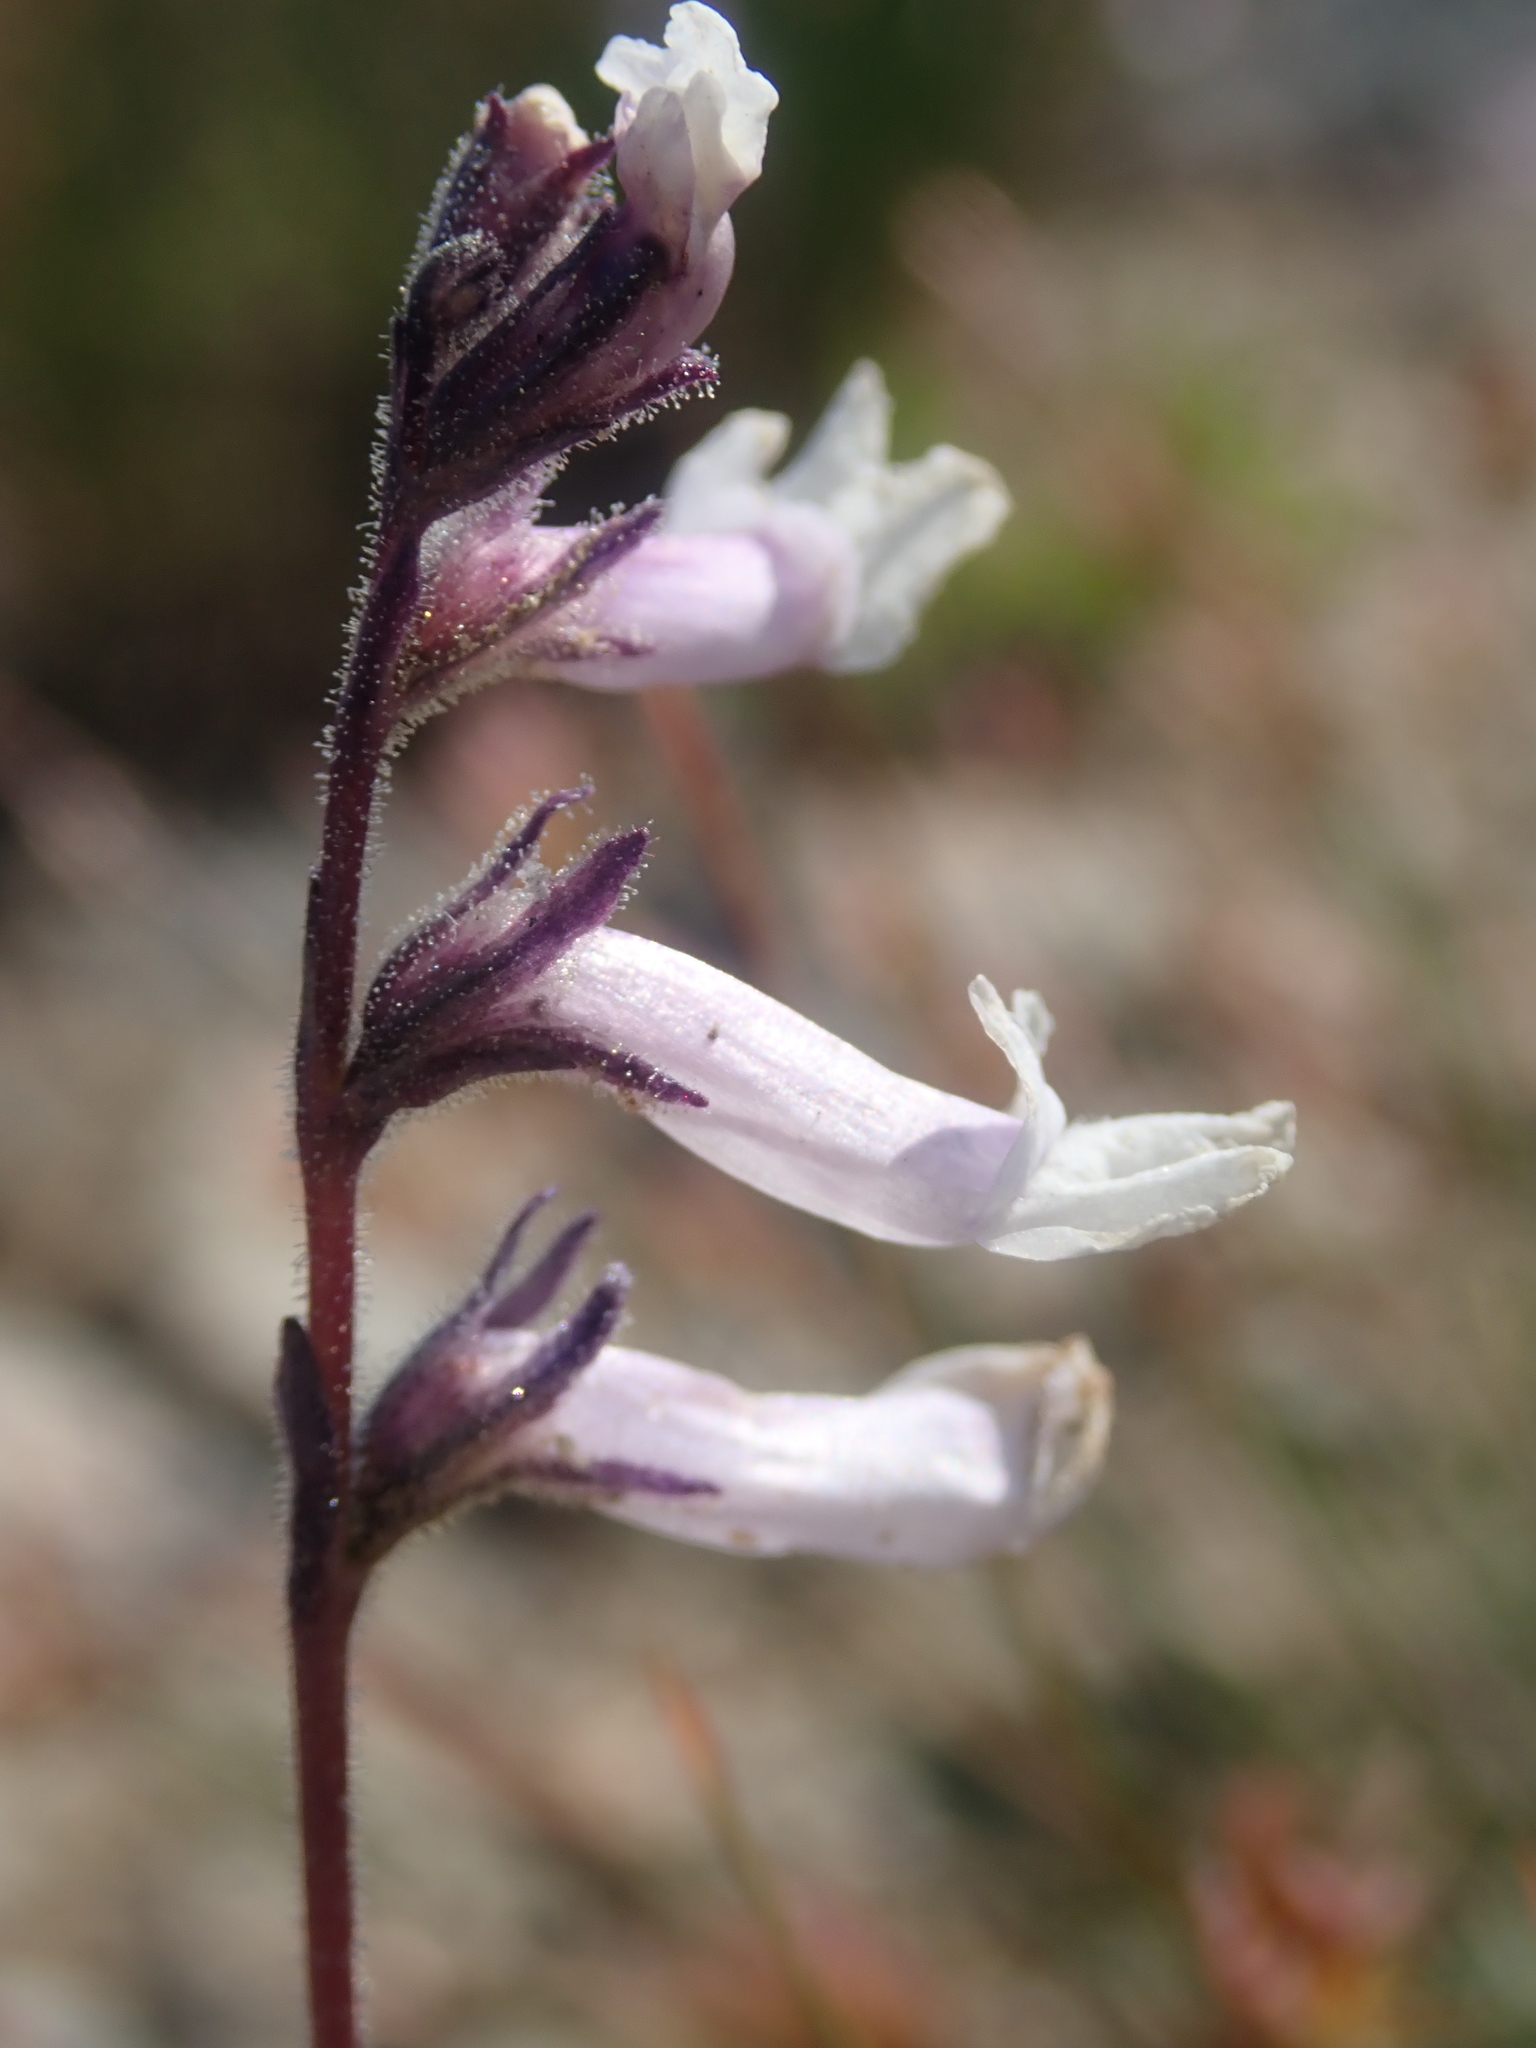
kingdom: Plantae
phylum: Tracheophyta
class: Magnoliopsida
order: Lamiales
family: Plantaginaceae
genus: Chionophila
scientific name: Chionophila tweedyi
